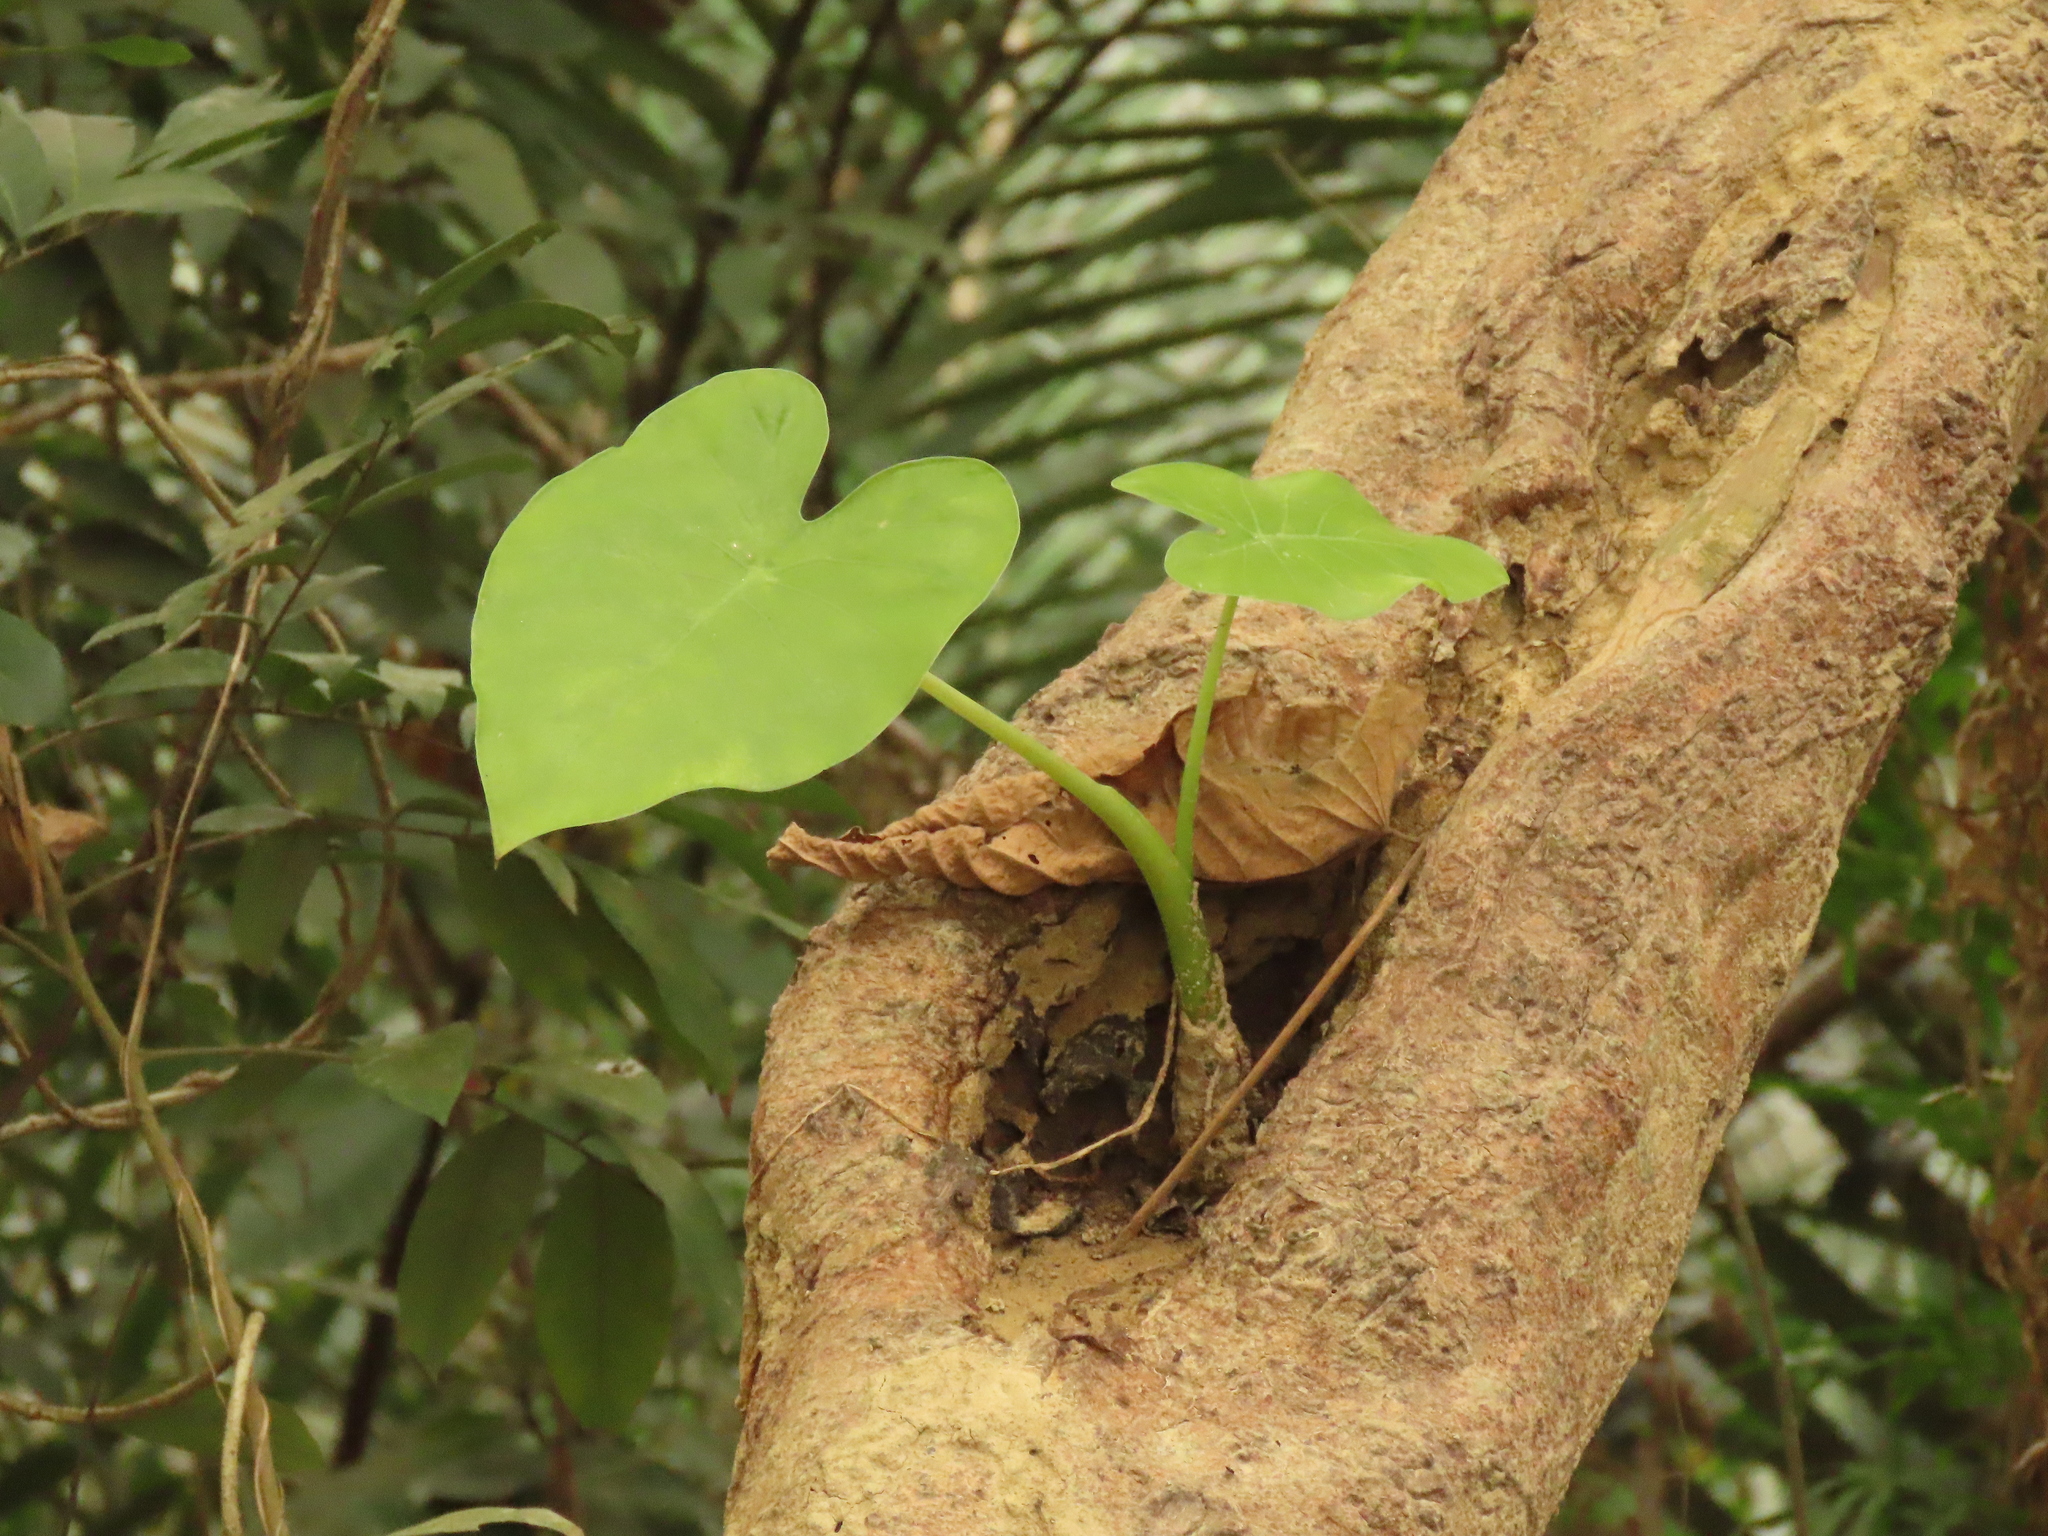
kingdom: Plantae
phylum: Tracheophyta
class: Liliopsida
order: Alismatales
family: Araceae
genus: Alocasia
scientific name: Alocasia odora
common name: Asian taro
